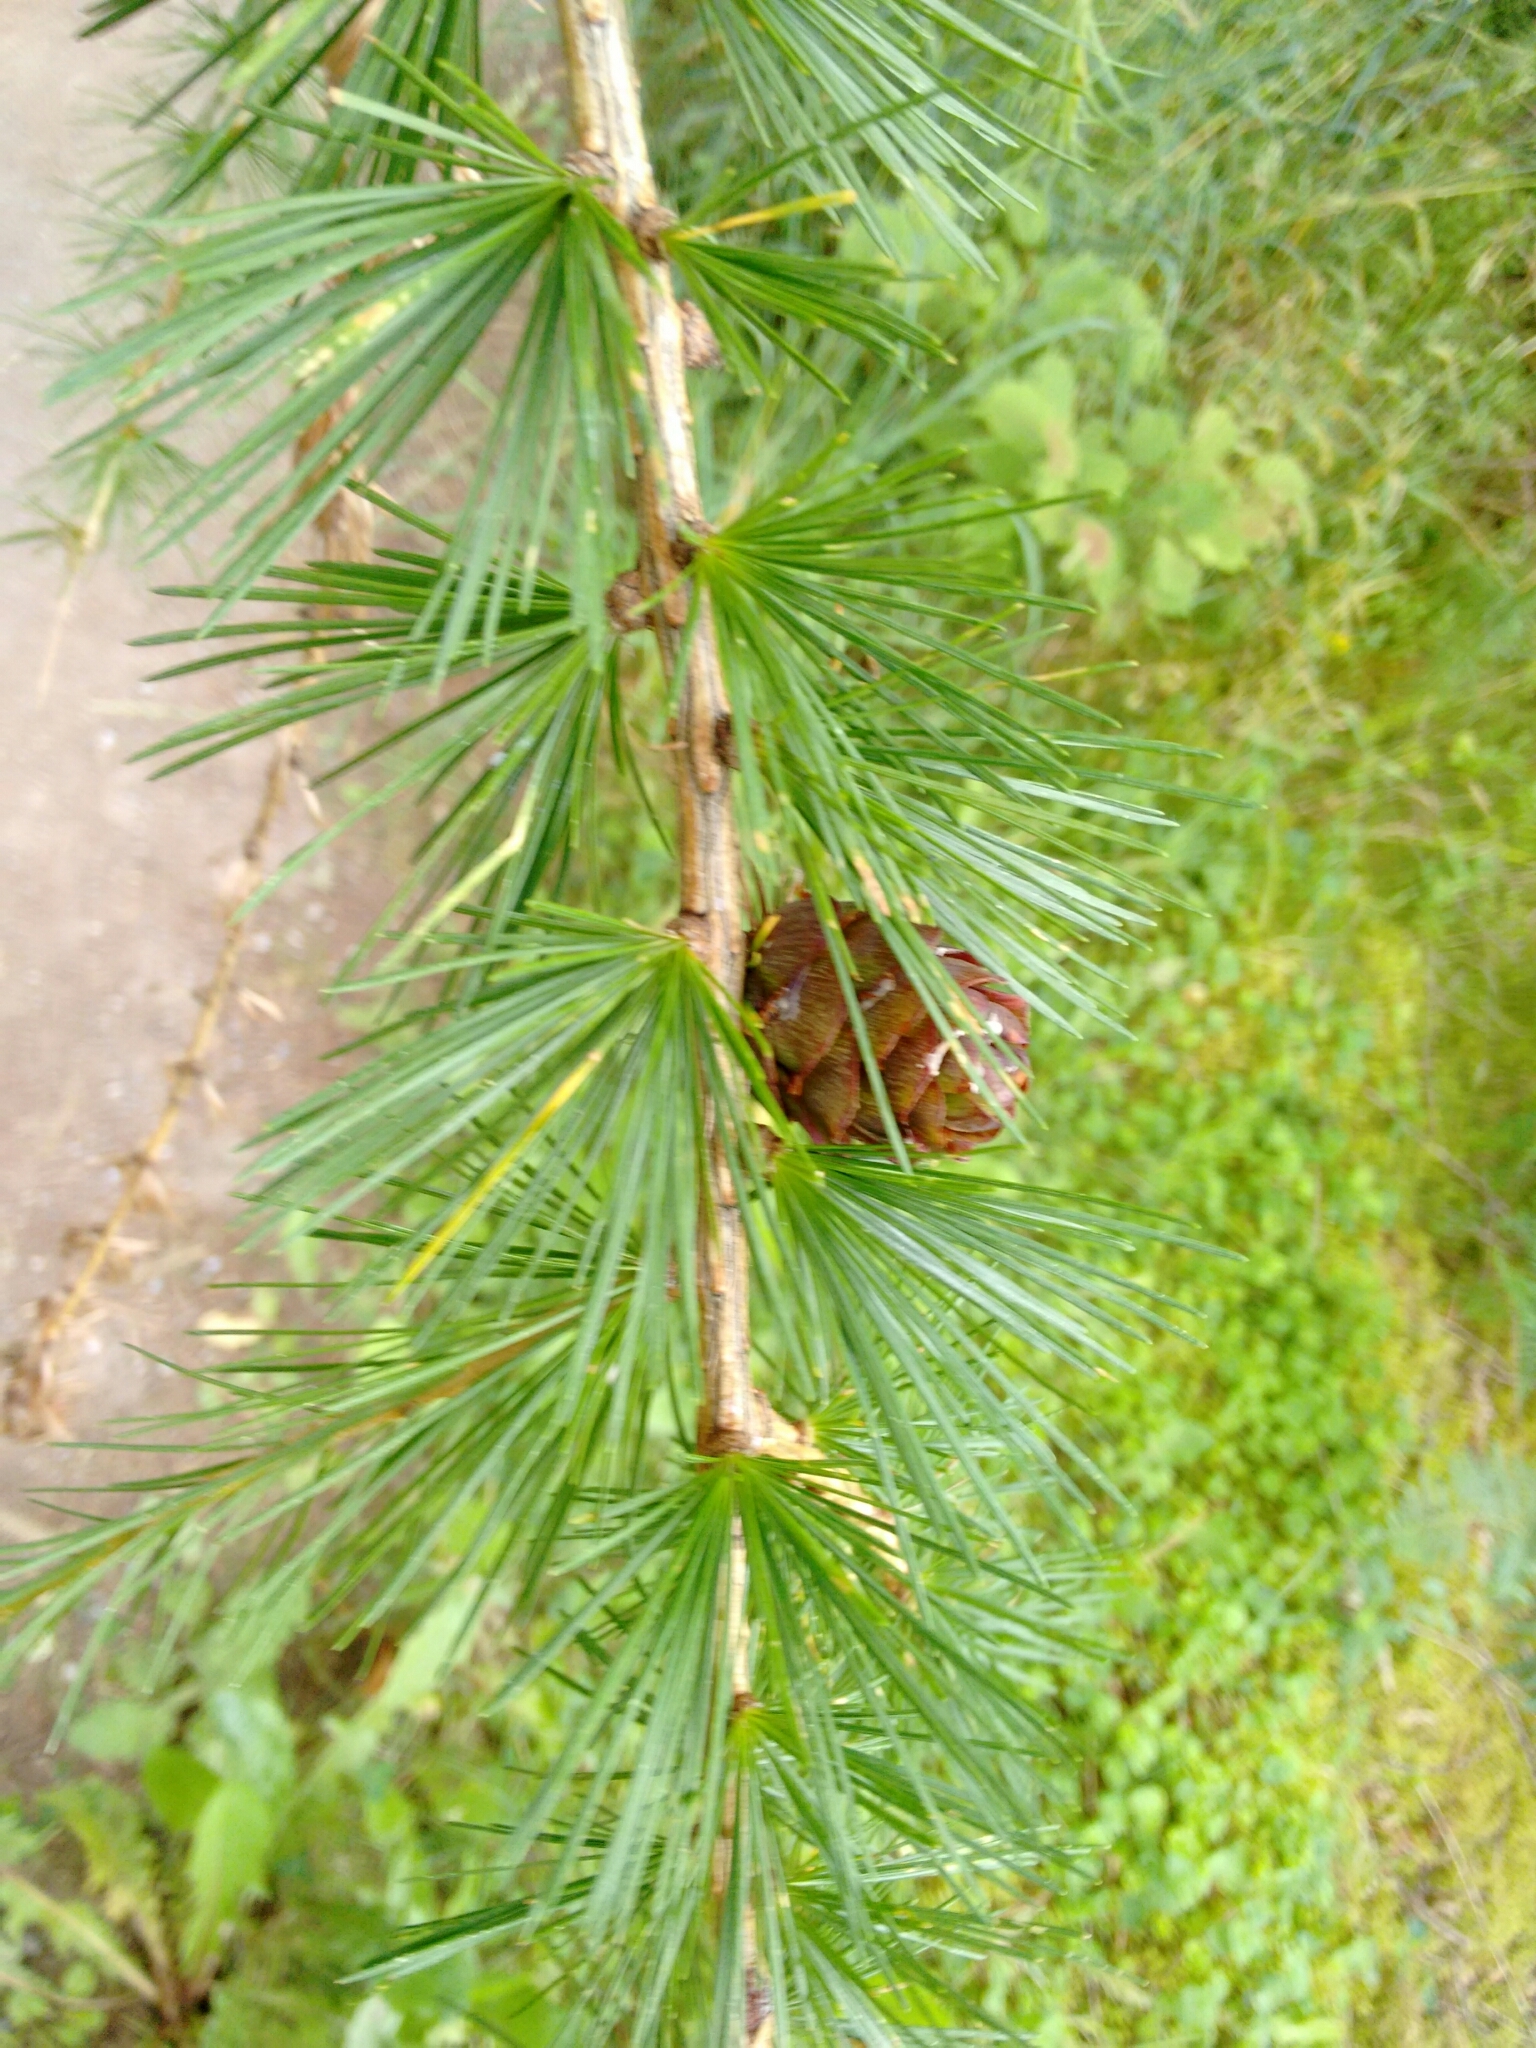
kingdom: Plantae
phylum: Tracheophyta
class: Pinopsida
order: Pinales
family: Pinaceae
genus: Larix
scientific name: Larix decidua
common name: European larch
